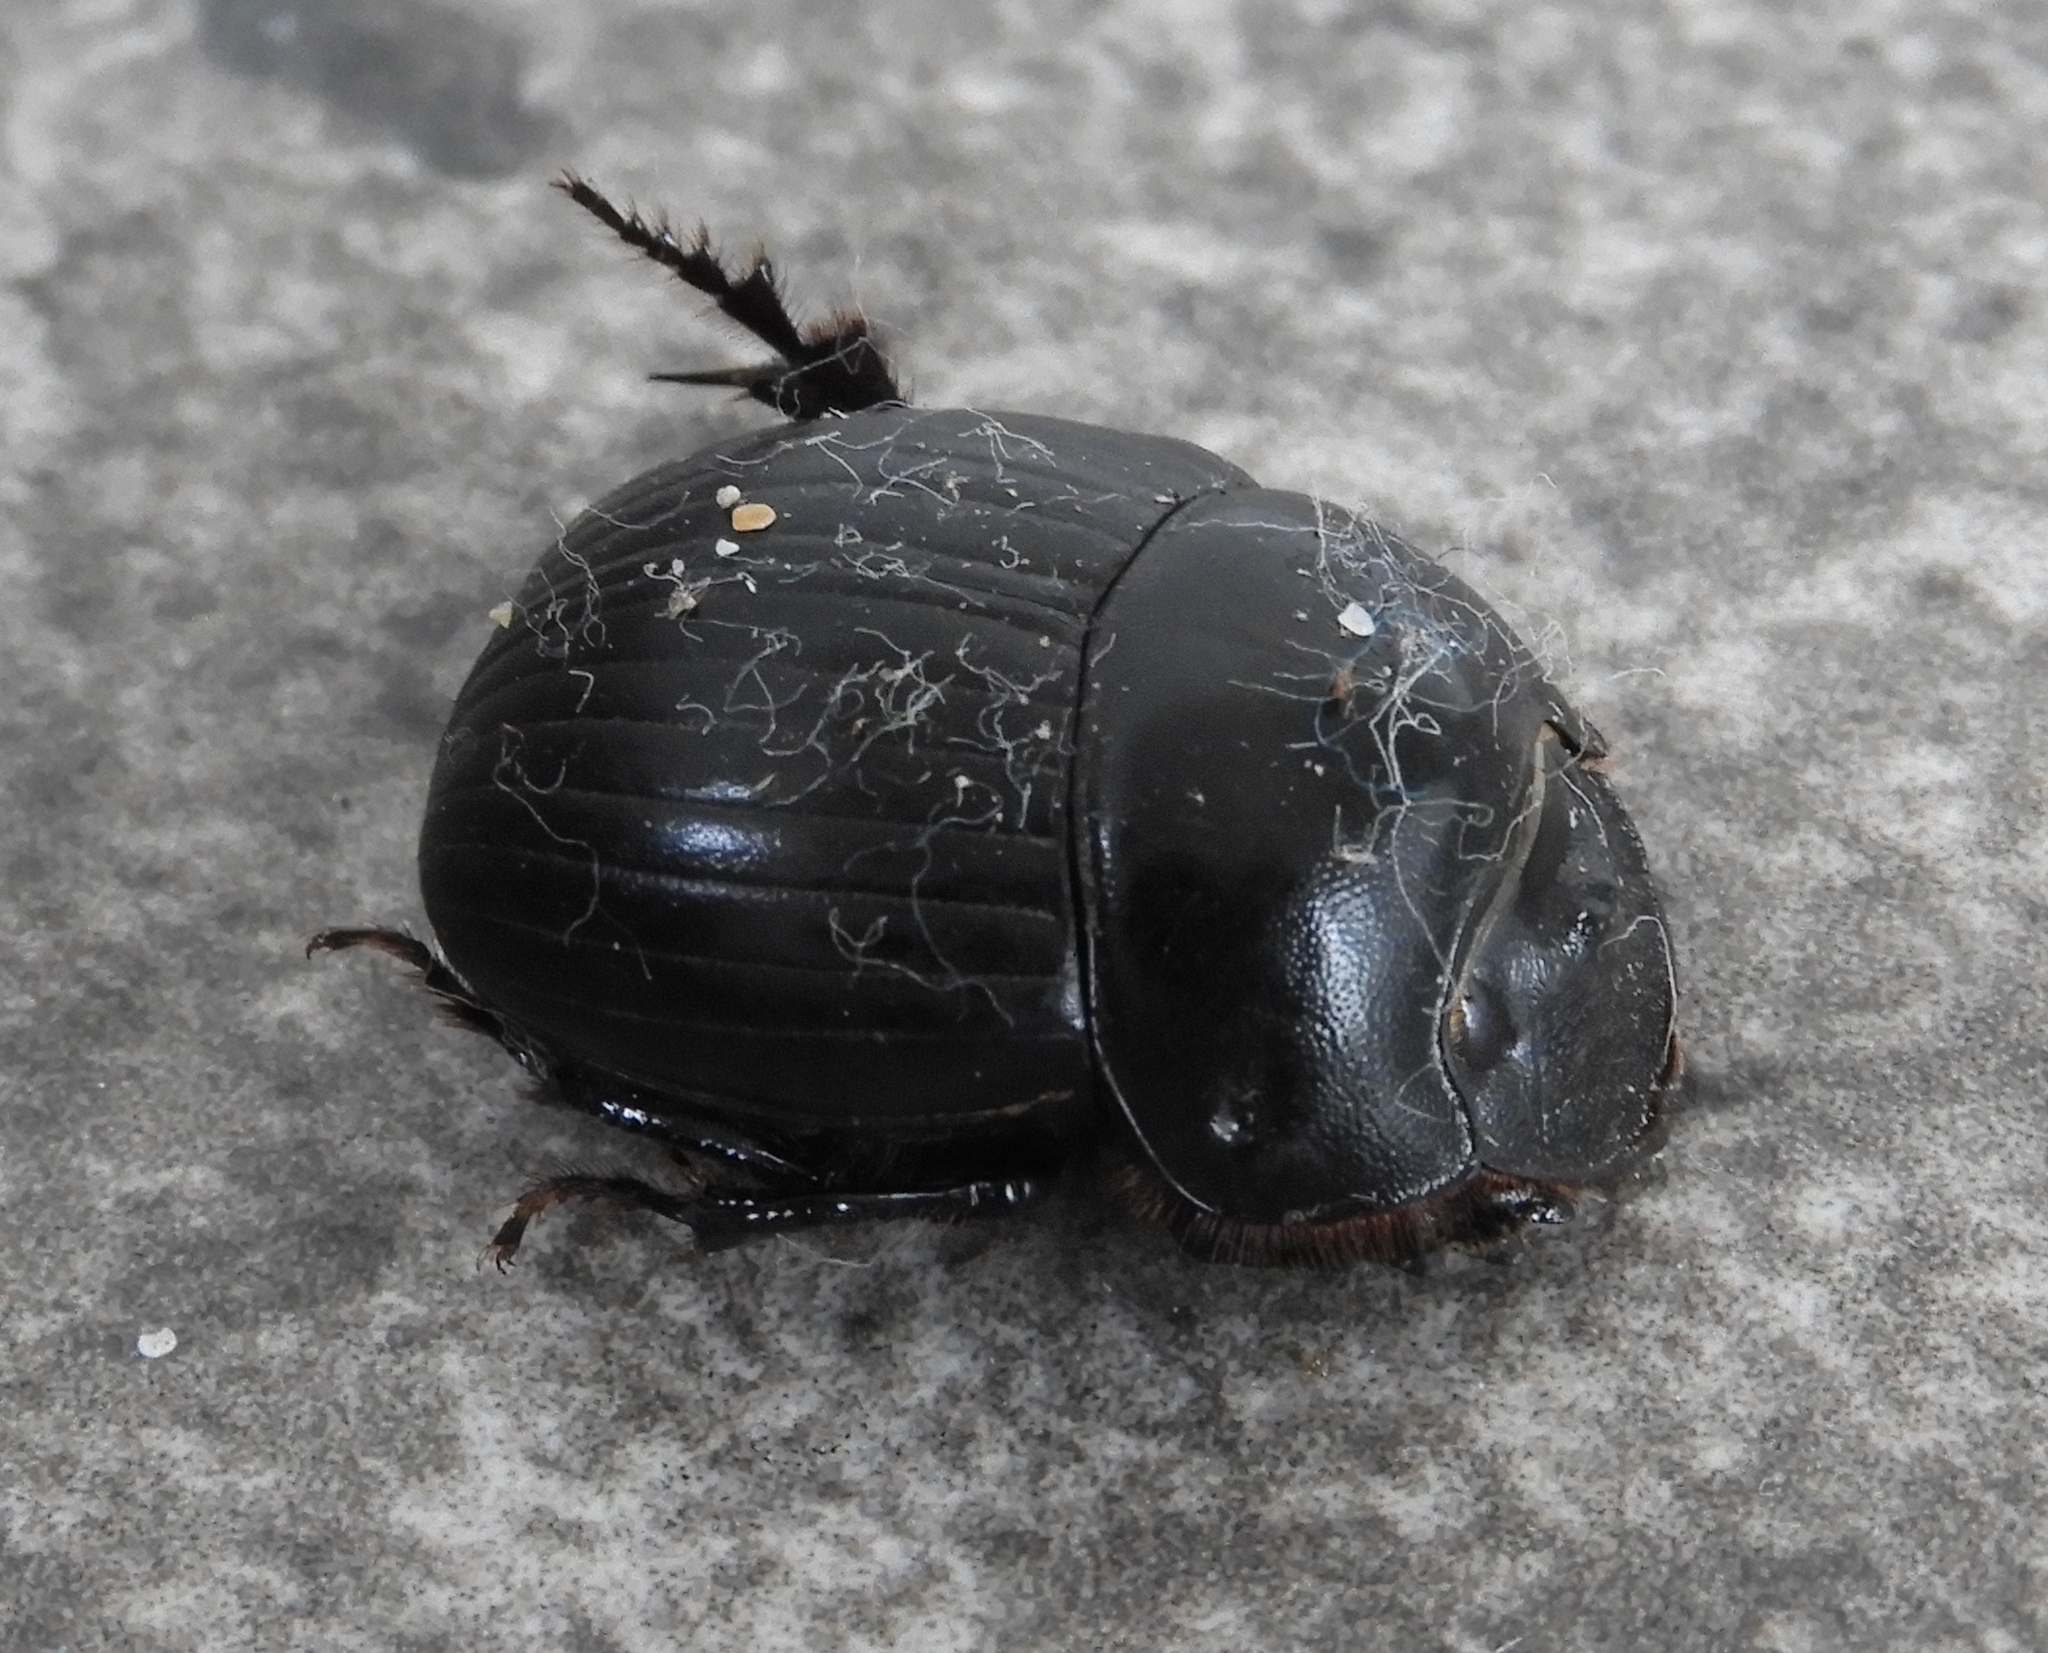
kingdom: Animalia
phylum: Arthropoda
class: Insecta
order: Coleoptera
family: Scarabaeidae
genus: Dichotomius
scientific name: Dichotomius
